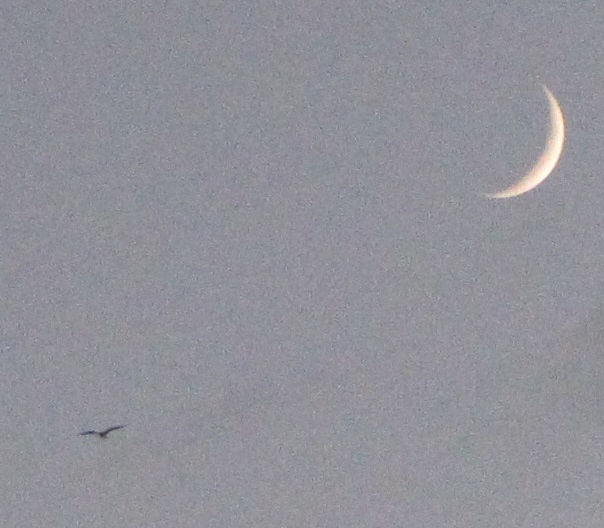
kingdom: Animalia
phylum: Chordata
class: Aves
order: Caprimulgiformes
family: Caprimulgidae
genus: Chordeiles
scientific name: Chordeiles minor
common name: Common nighthawk
